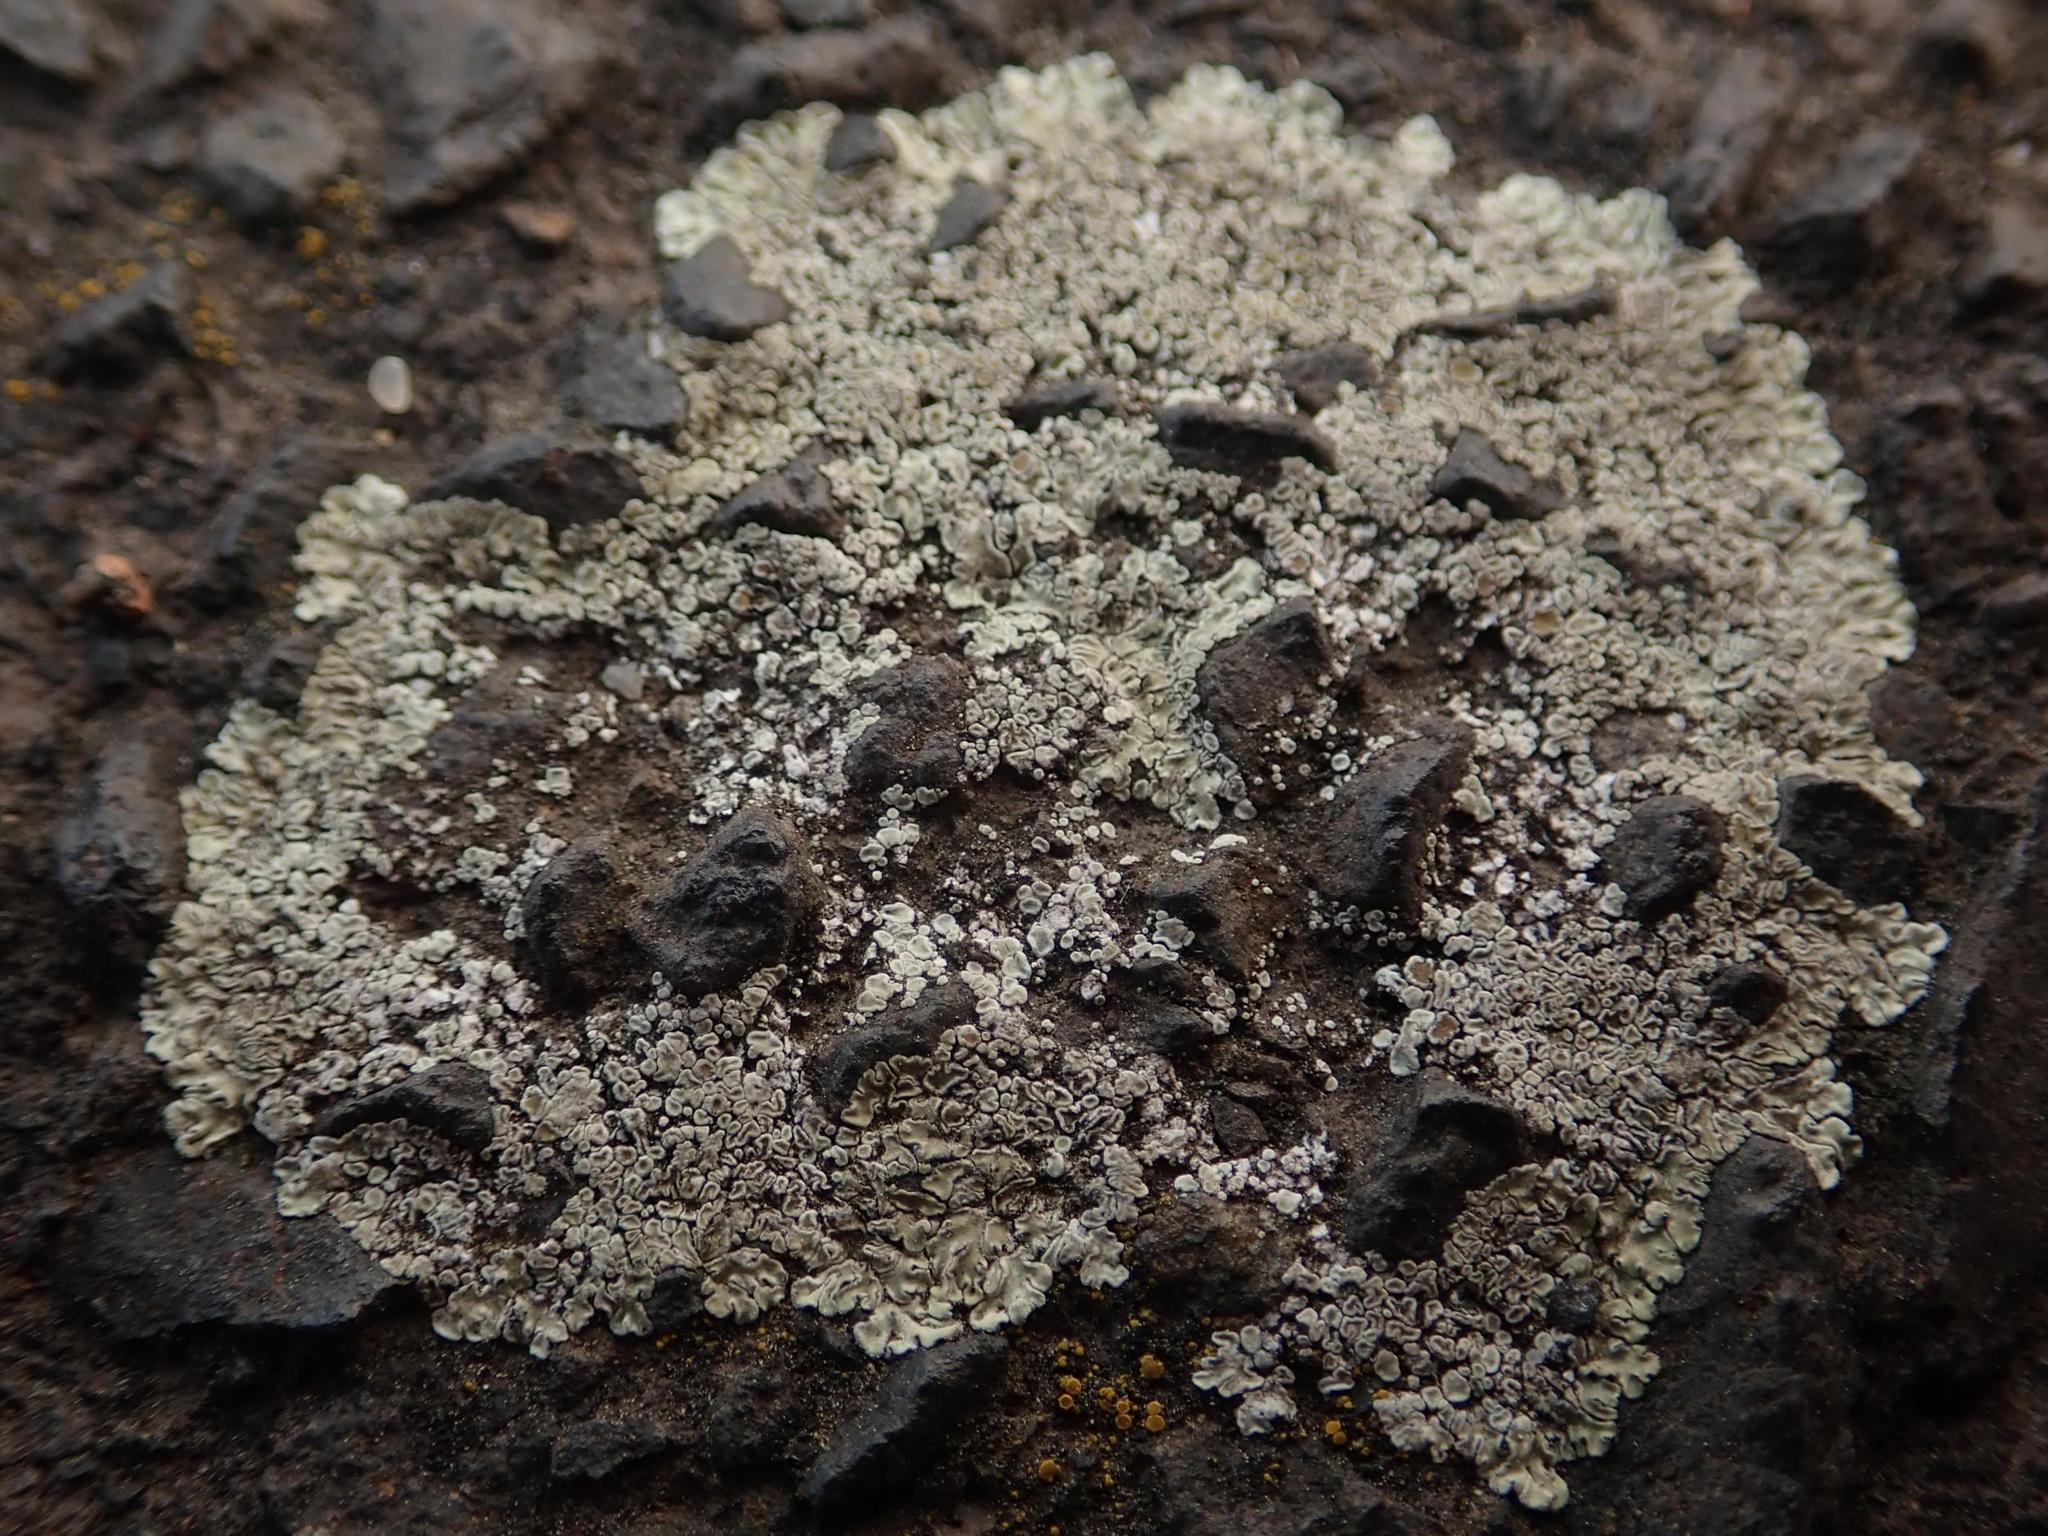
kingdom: Fungi
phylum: Ascomycota
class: Lecanoromycetes
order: Lecanorales
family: Lecanoraceae
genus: Protoparmeliopsis
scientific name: Protoparmeliopsis muralis
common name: Stonewall rim lichen
